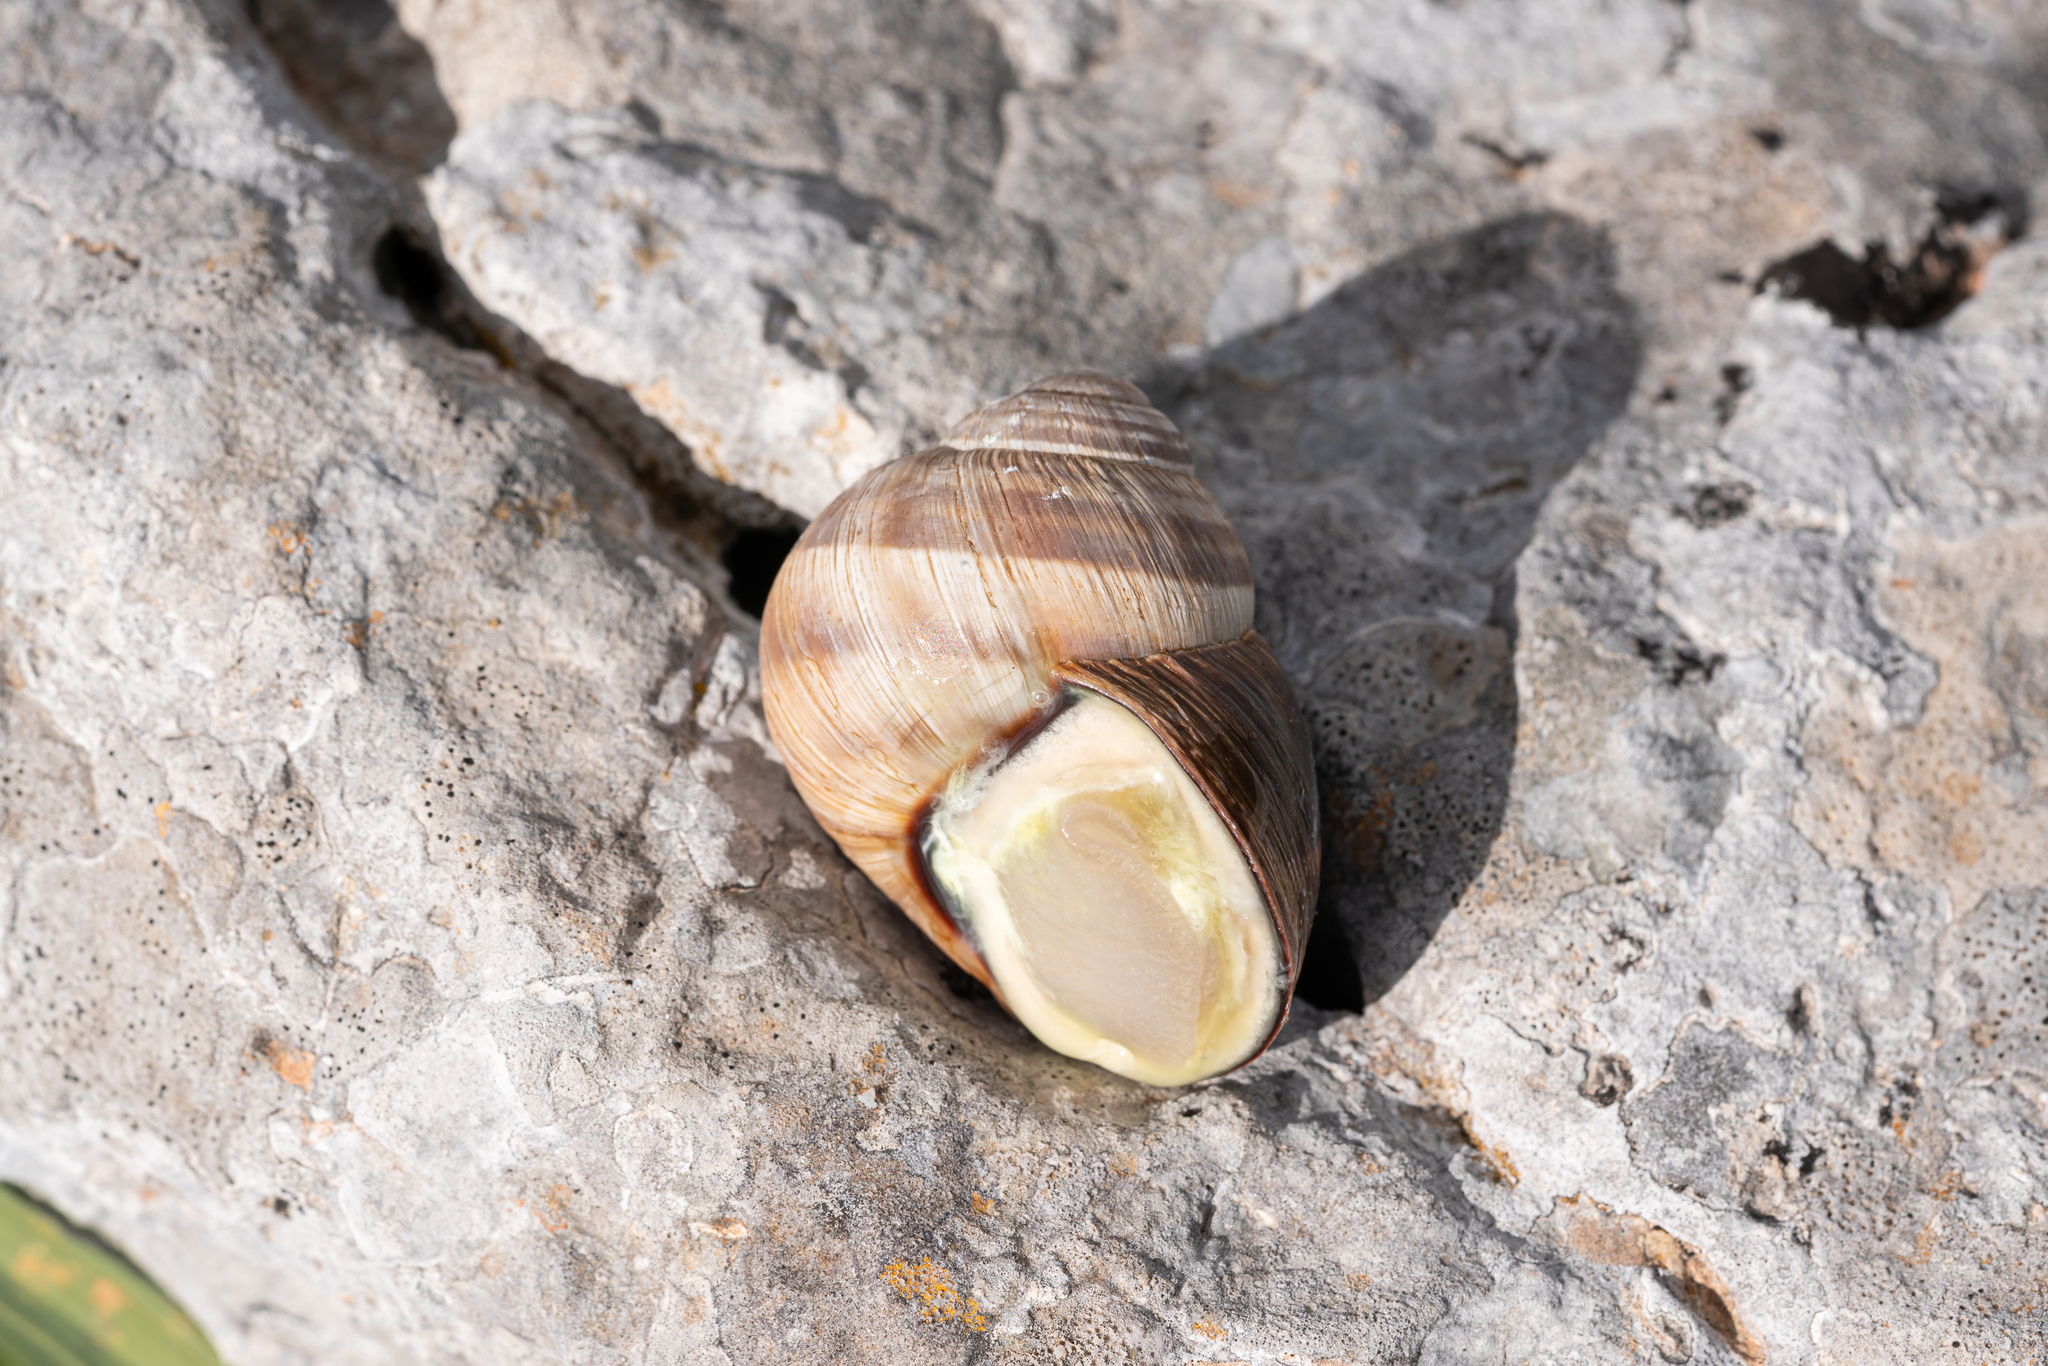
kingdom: Animalia
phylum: Mollusca
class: Gastropoda
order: Stylommatophora
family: Helicidae
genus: Helix
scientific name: Helix fathallae
